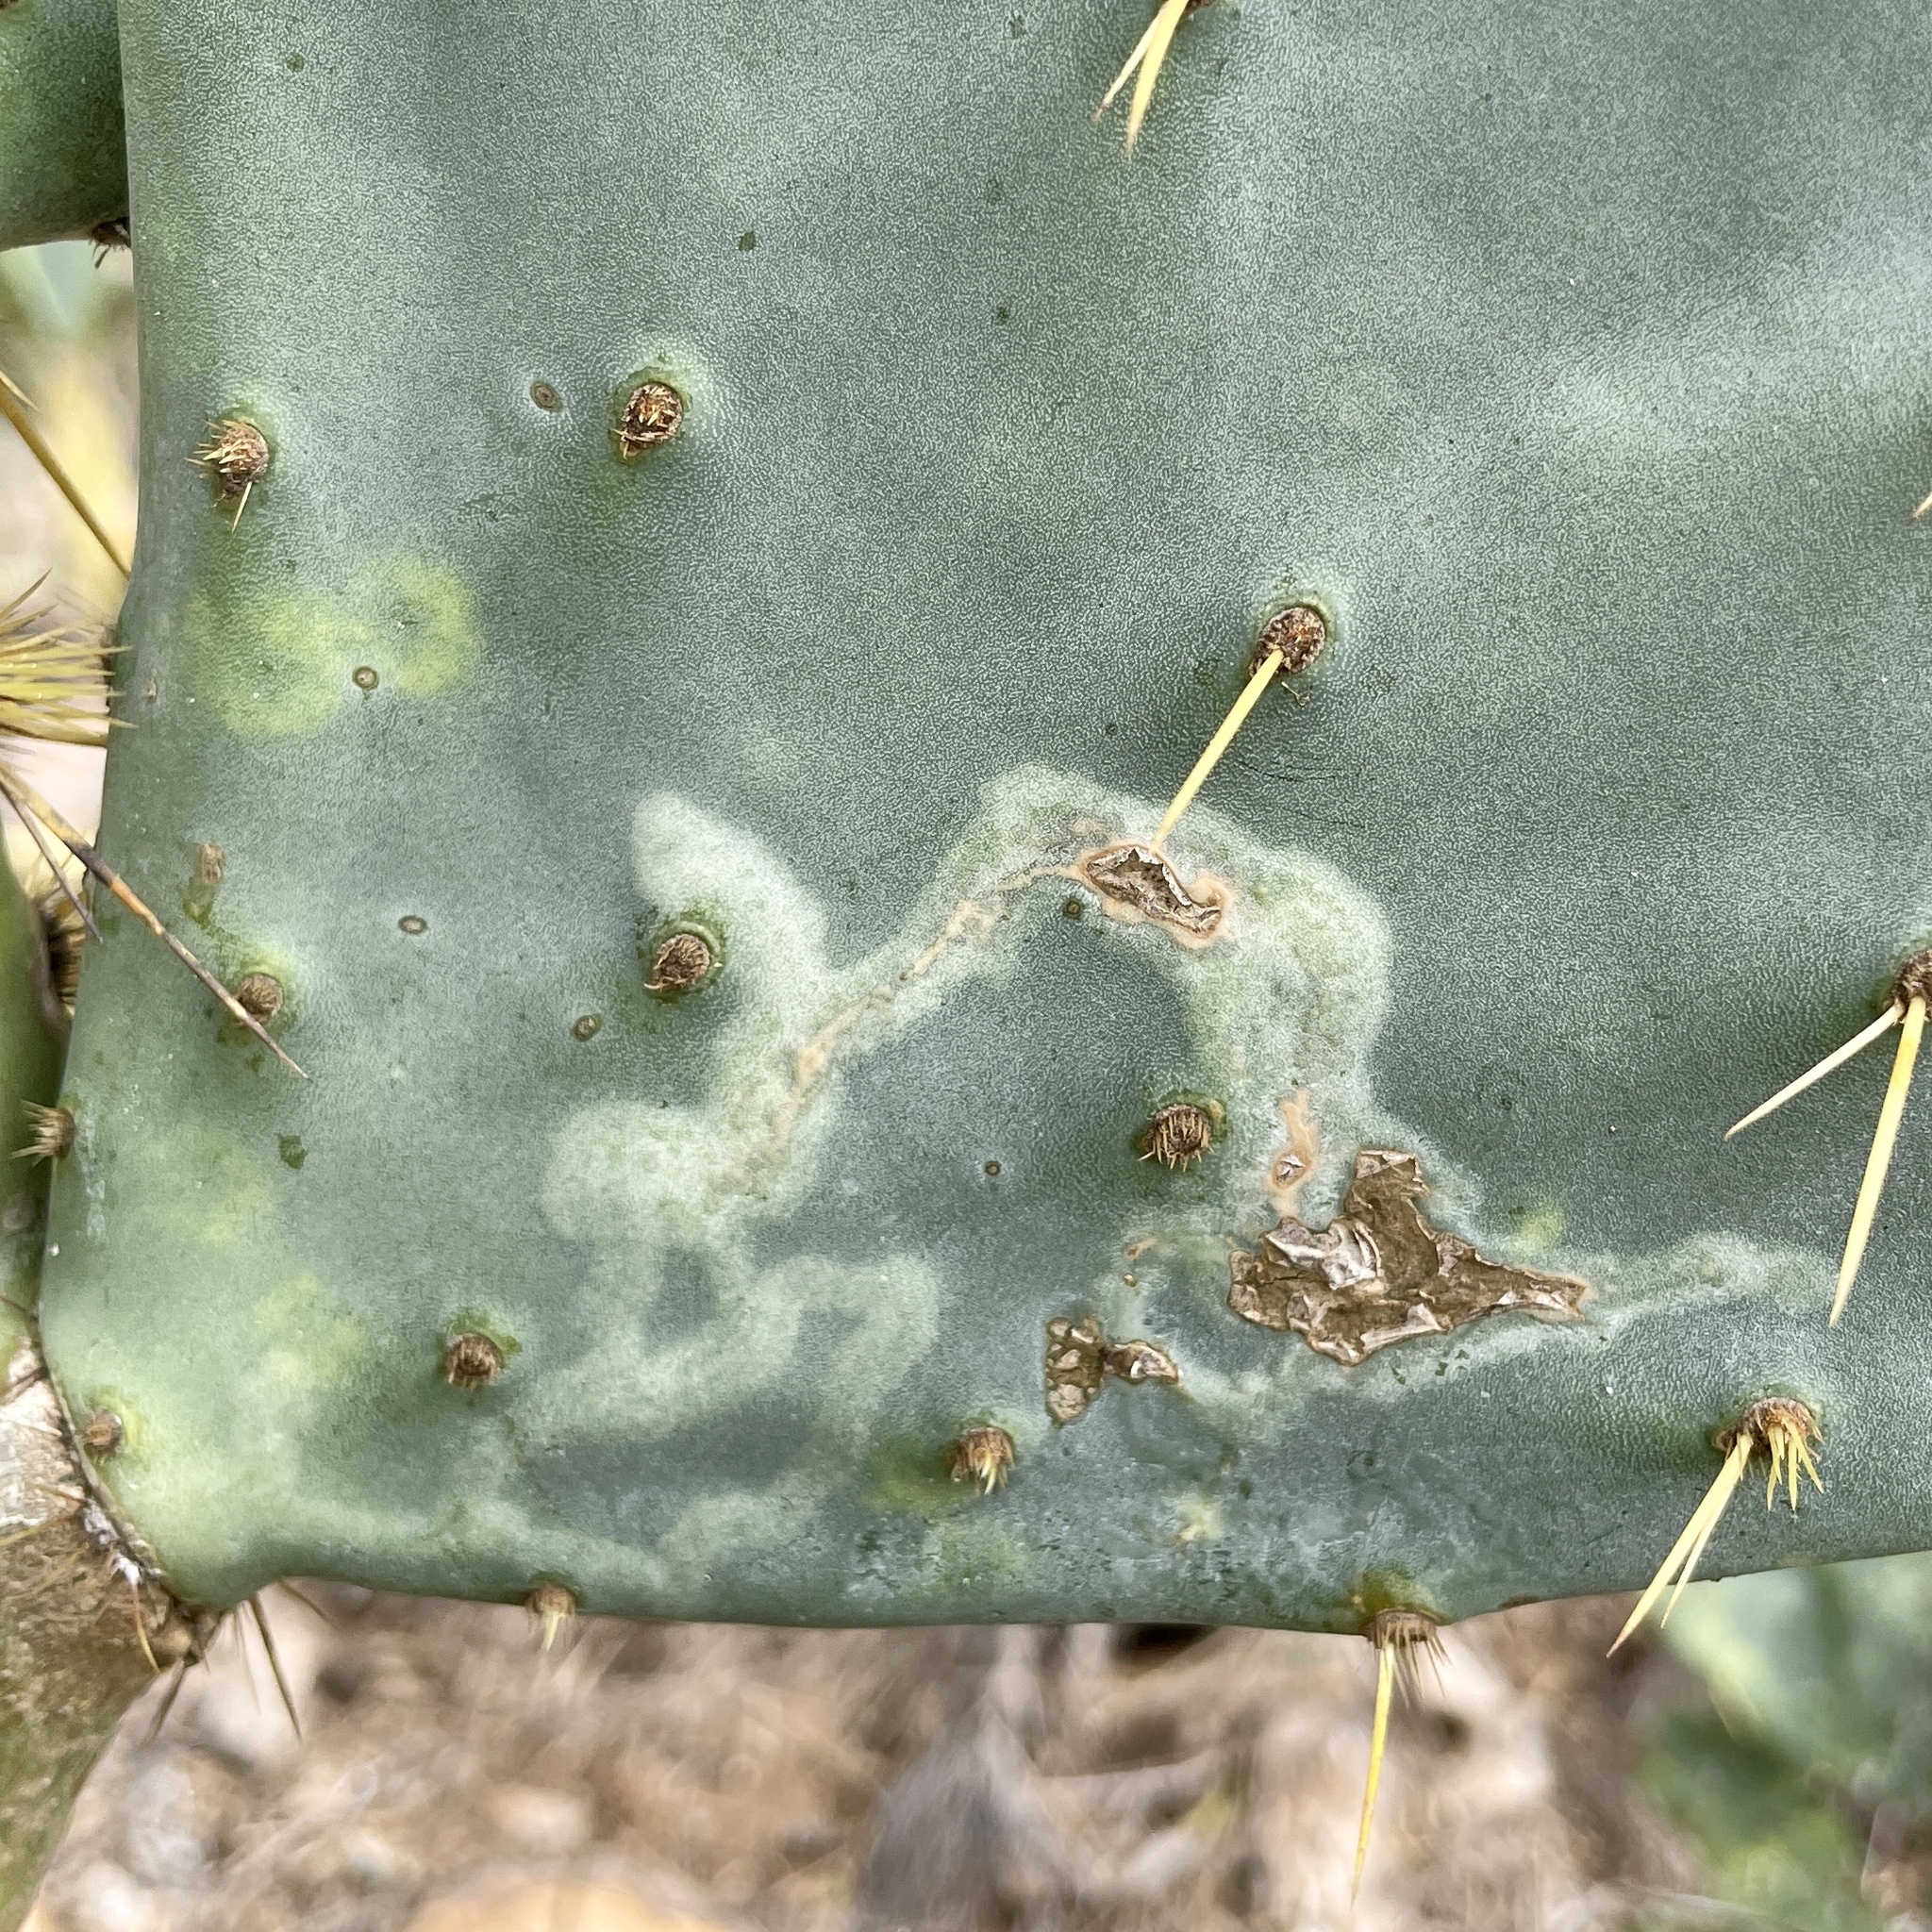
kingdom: Animalia
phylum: Arthropoda
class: Insecta
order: Lepidoptera
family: Gracillariidae
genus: Marmara
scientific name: Marmara opuntiella
